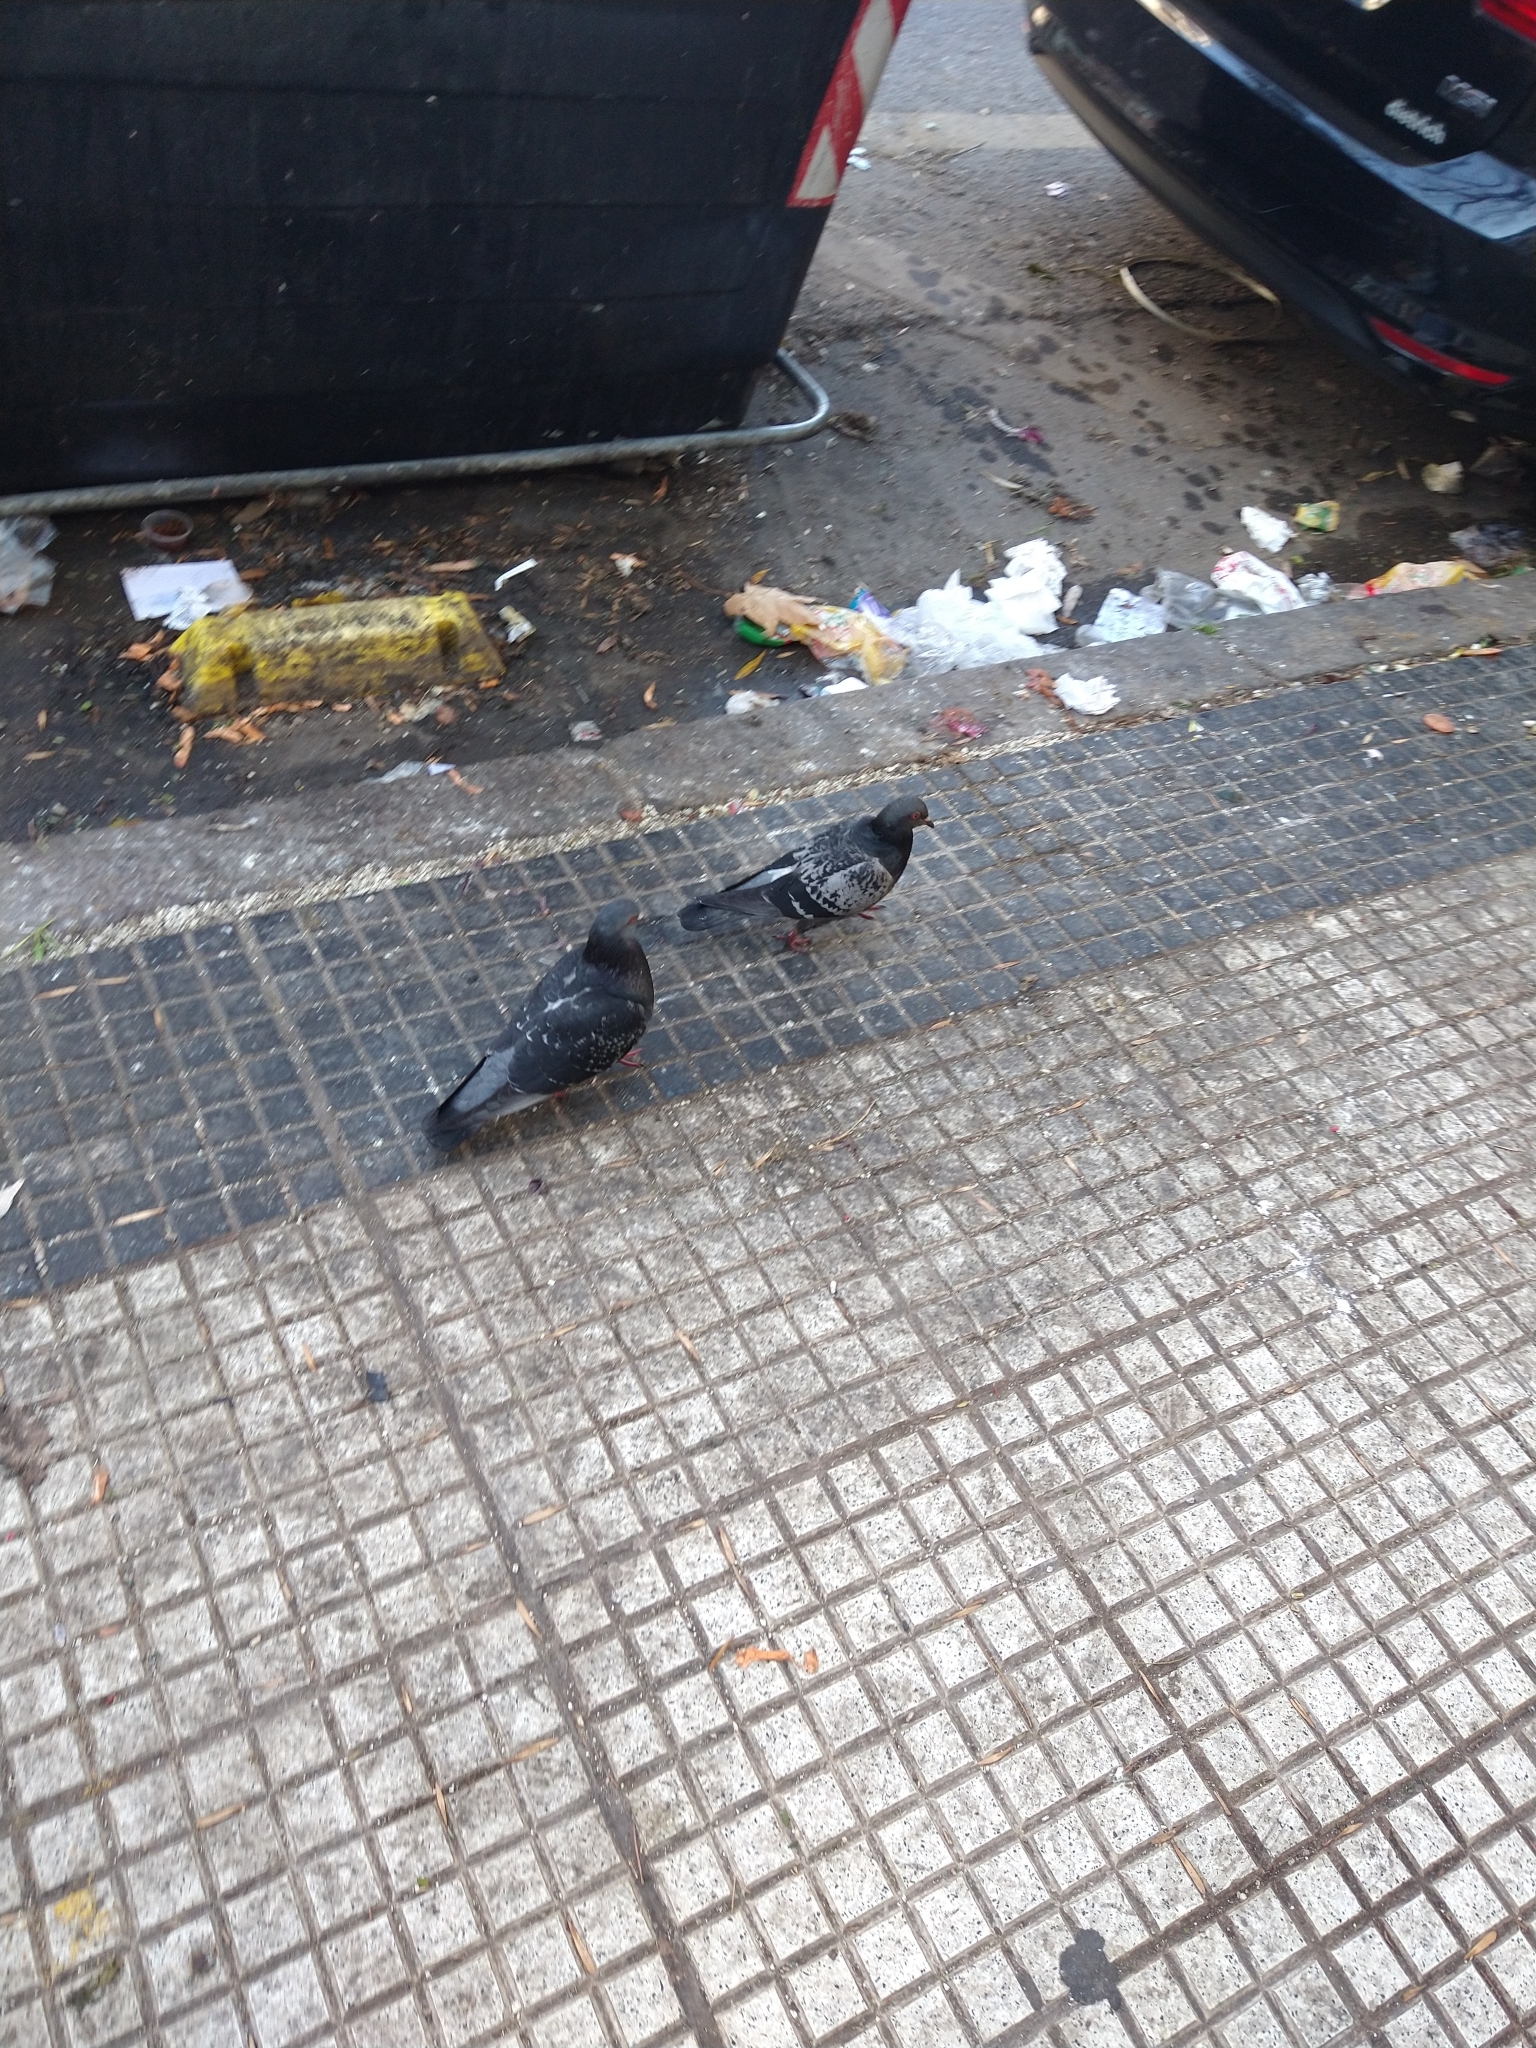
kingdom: Animalia
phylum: Chordata
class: Aves
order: Columbiformes
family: Columbidae
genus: Columba
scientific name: Columba livia
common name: Rock pigeon
